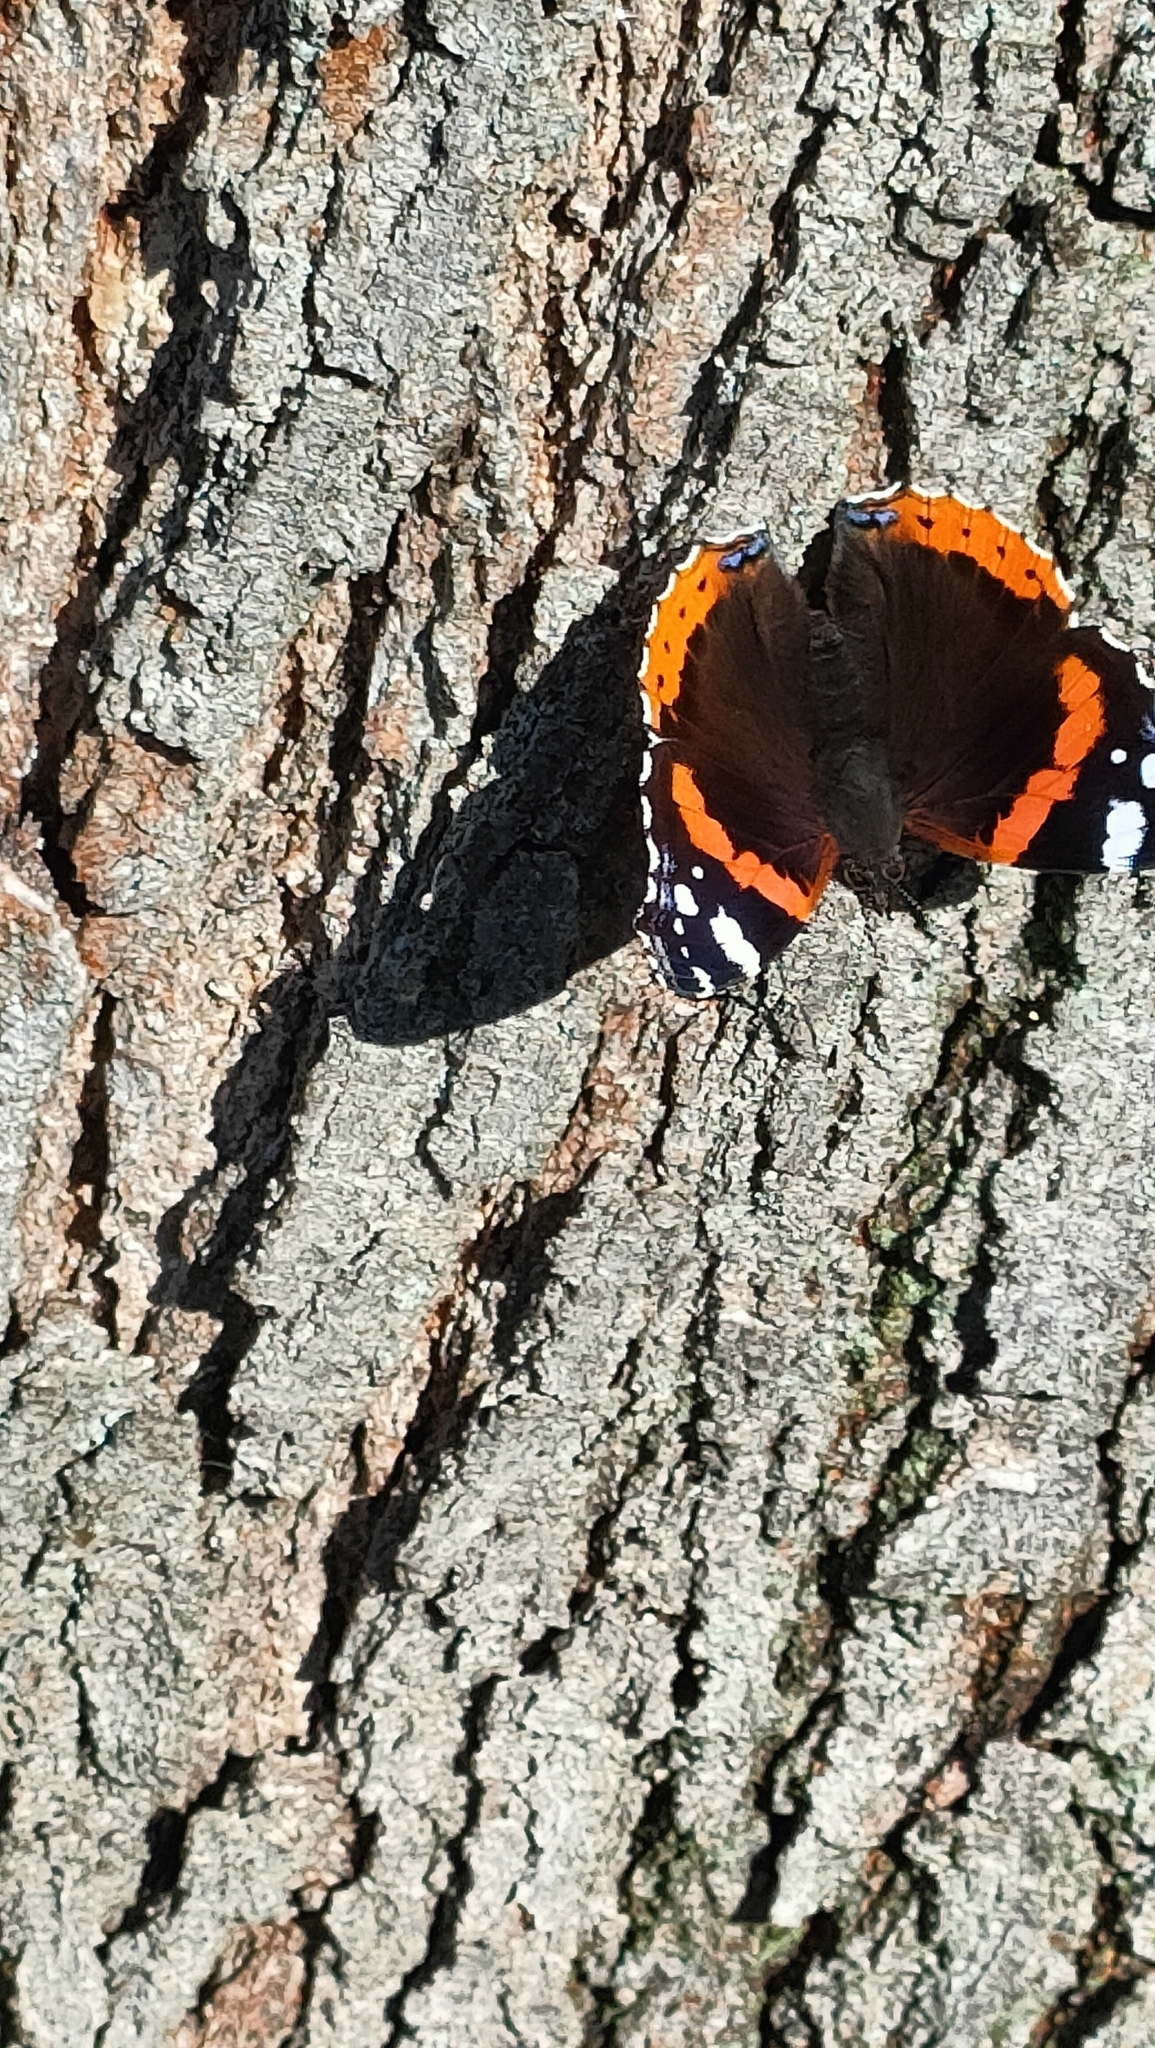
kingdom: Animalia
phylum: Arthropoda
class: Insecta
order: Lepidoptera
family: Nymphalidae
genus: Vanessa
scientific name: Vanessa atalanta
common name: Red admiral
